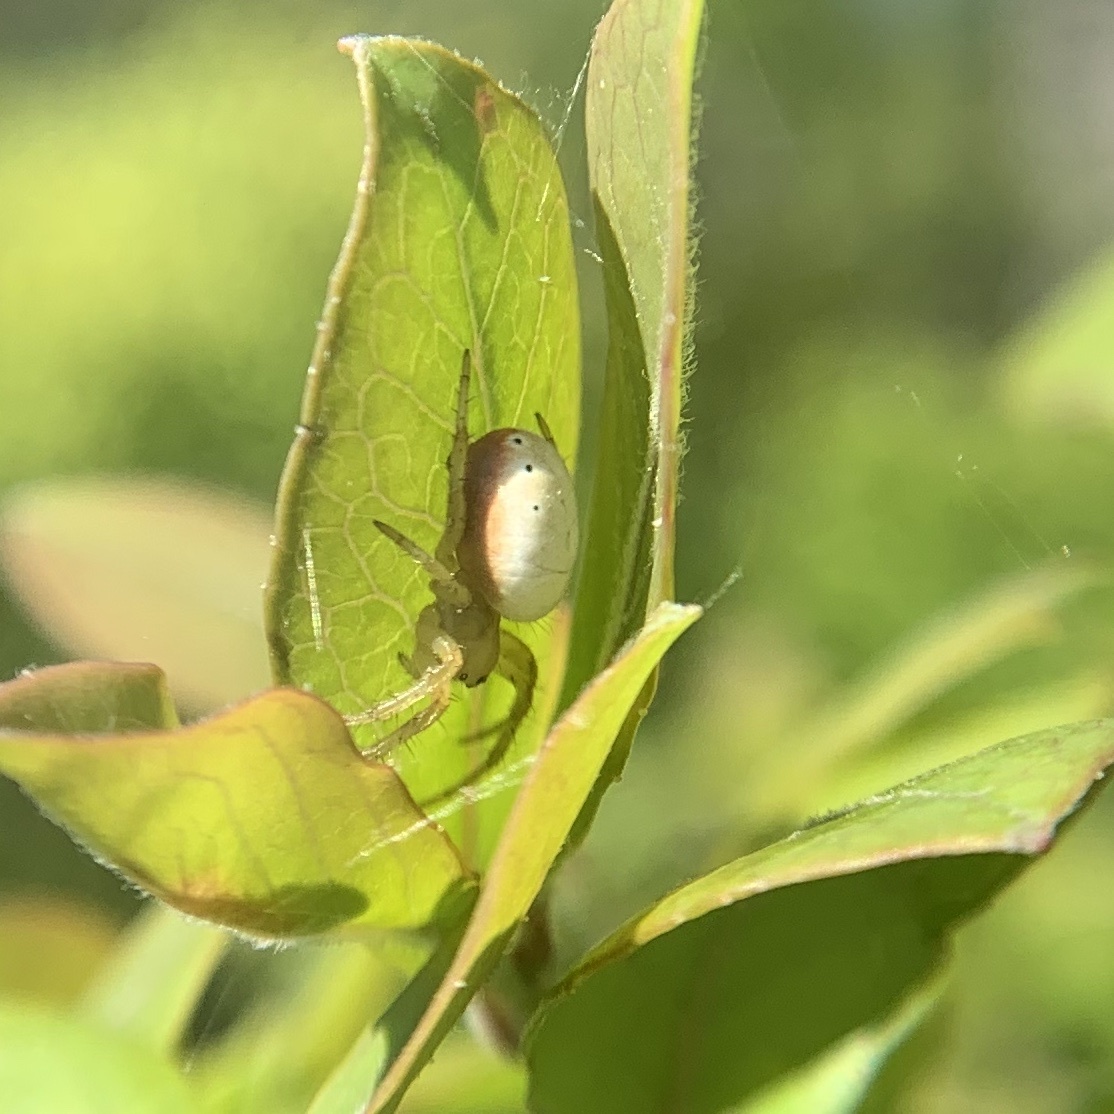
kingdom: Animalia
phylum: Arthropoda
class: Arachnida
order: Araneae
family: Araneidae
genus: Araniella
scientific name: Araniella displicata
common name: Sixspotted orb weaver
